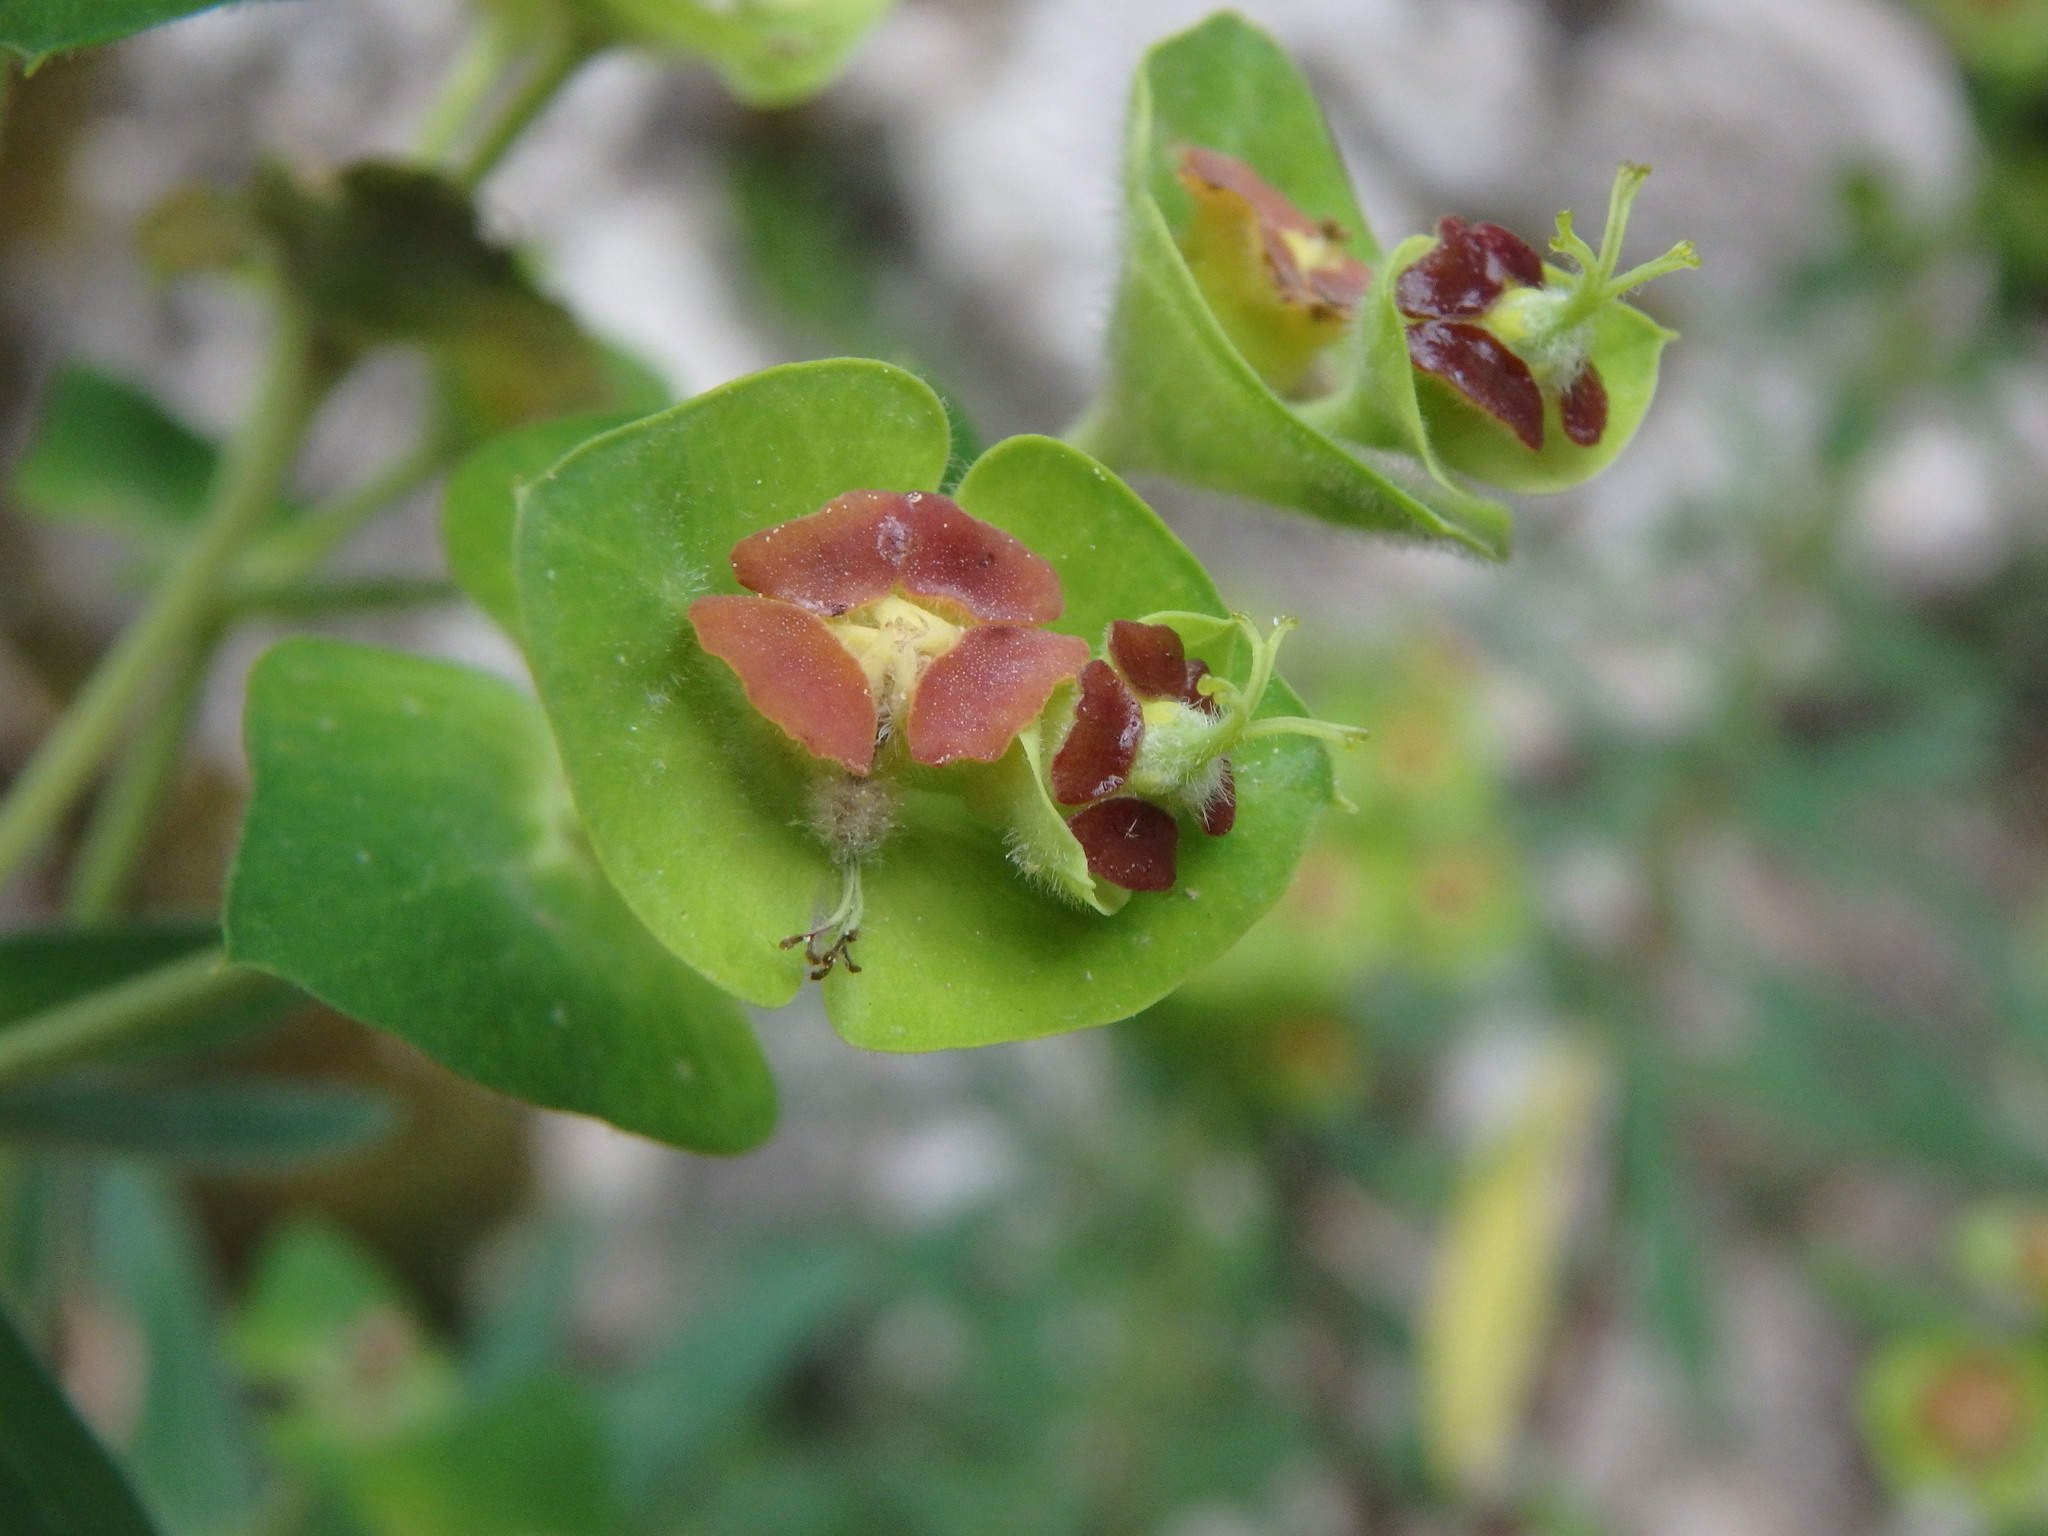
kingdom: Plantae
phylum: Tracheophyta
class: Magnoliopsida
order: Malpighiales
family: Euphorbiaceae
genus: Euphorbia
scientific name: Euphorbia characias
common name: Mediterranean spurge
